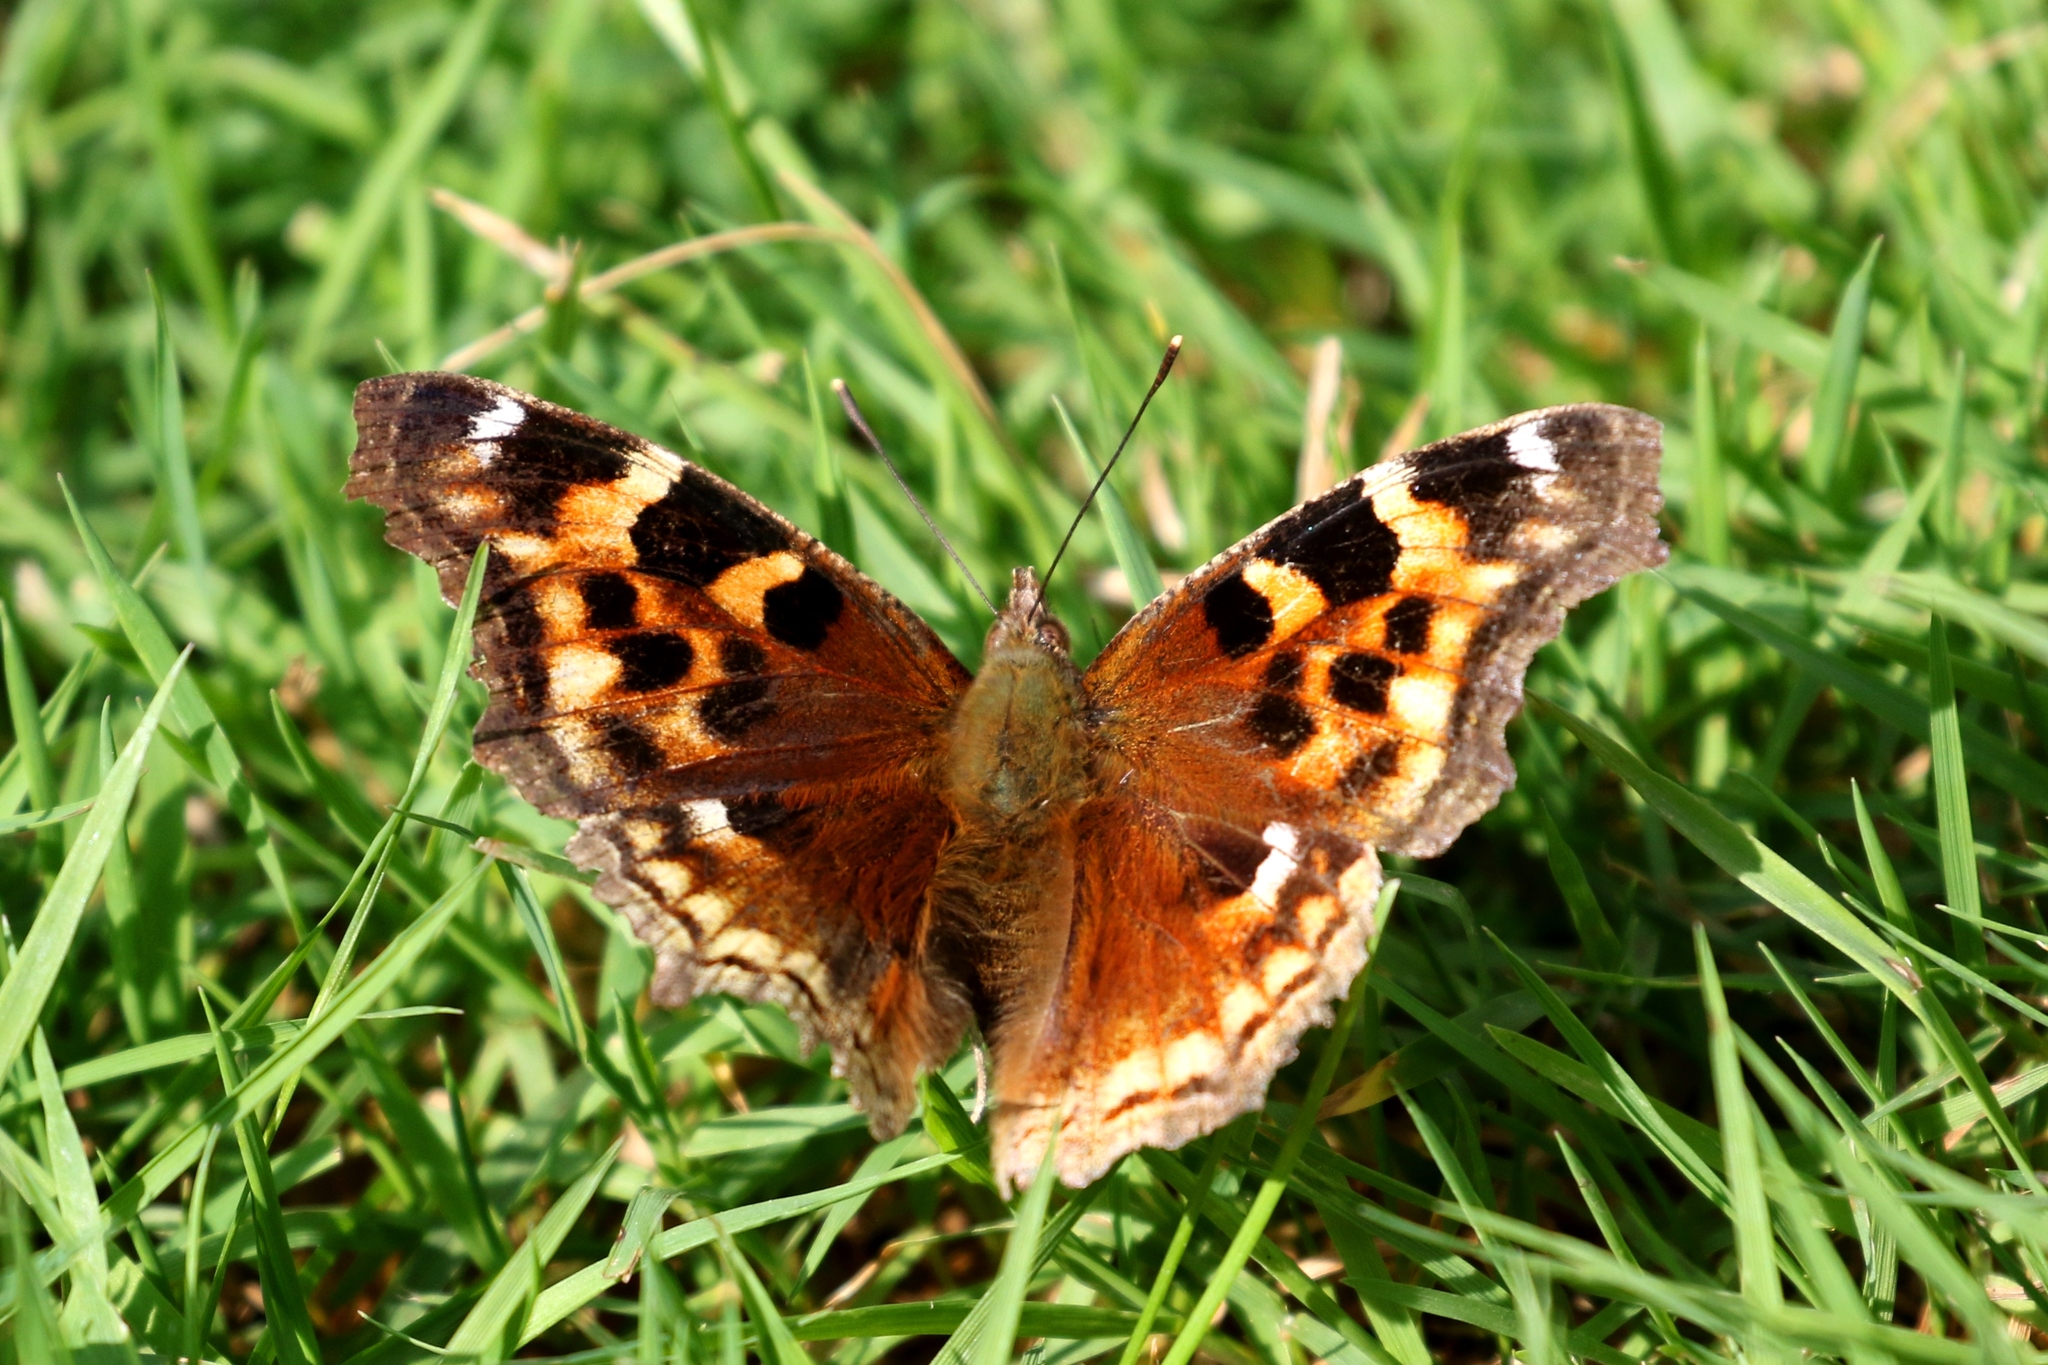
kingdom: Animalia
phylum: Arthropoda
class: Insecta
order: Lepidoptera
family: Nymphalidae
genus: Polygonia
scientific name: Polygonia vaualbum
